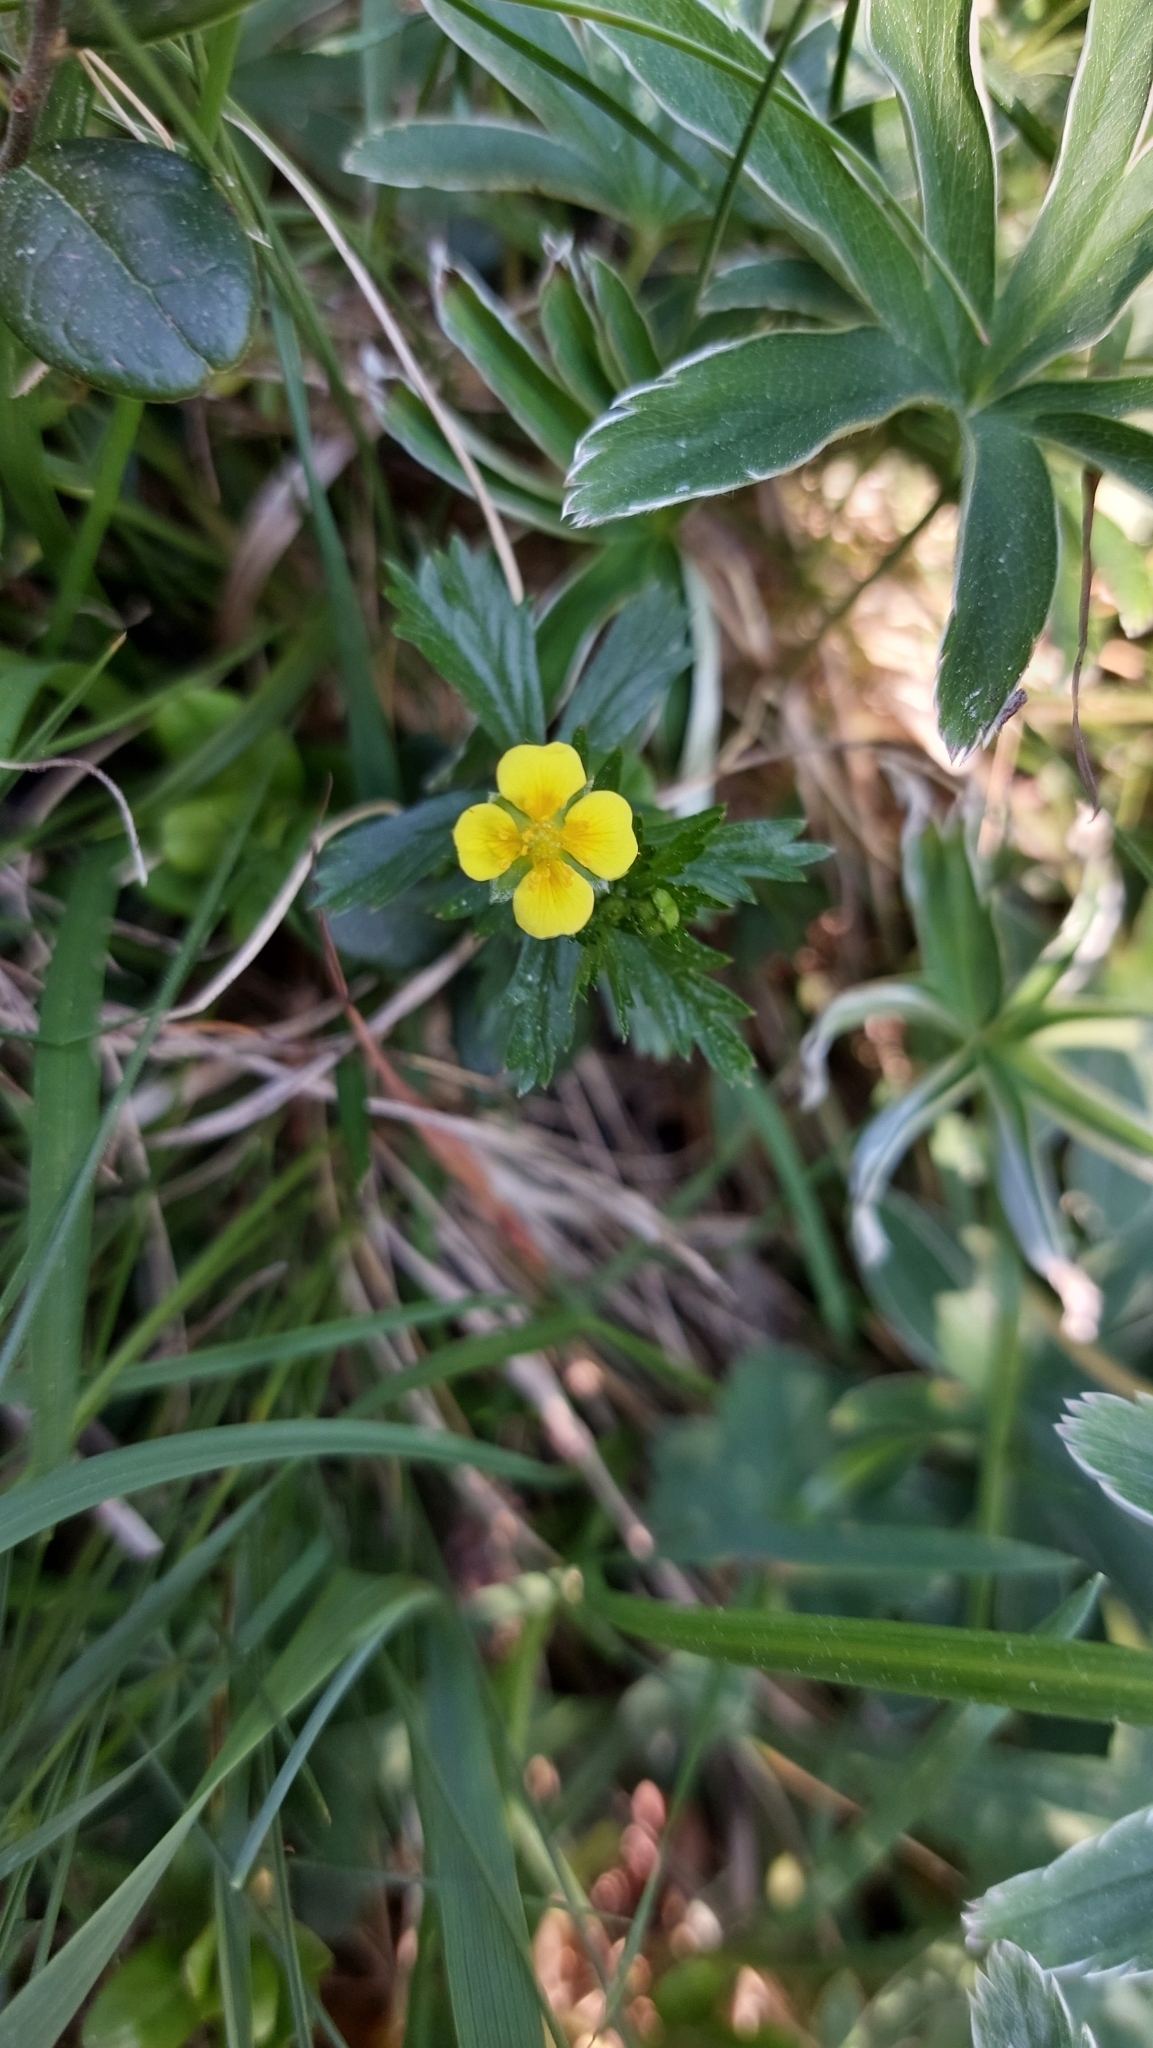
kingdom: Plantae
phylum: Tracheophyta
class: Magnoliopsida
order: Rosales
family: Rosaceae
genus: Potentilla
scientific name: Potentilla erecta
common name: Tormentil
